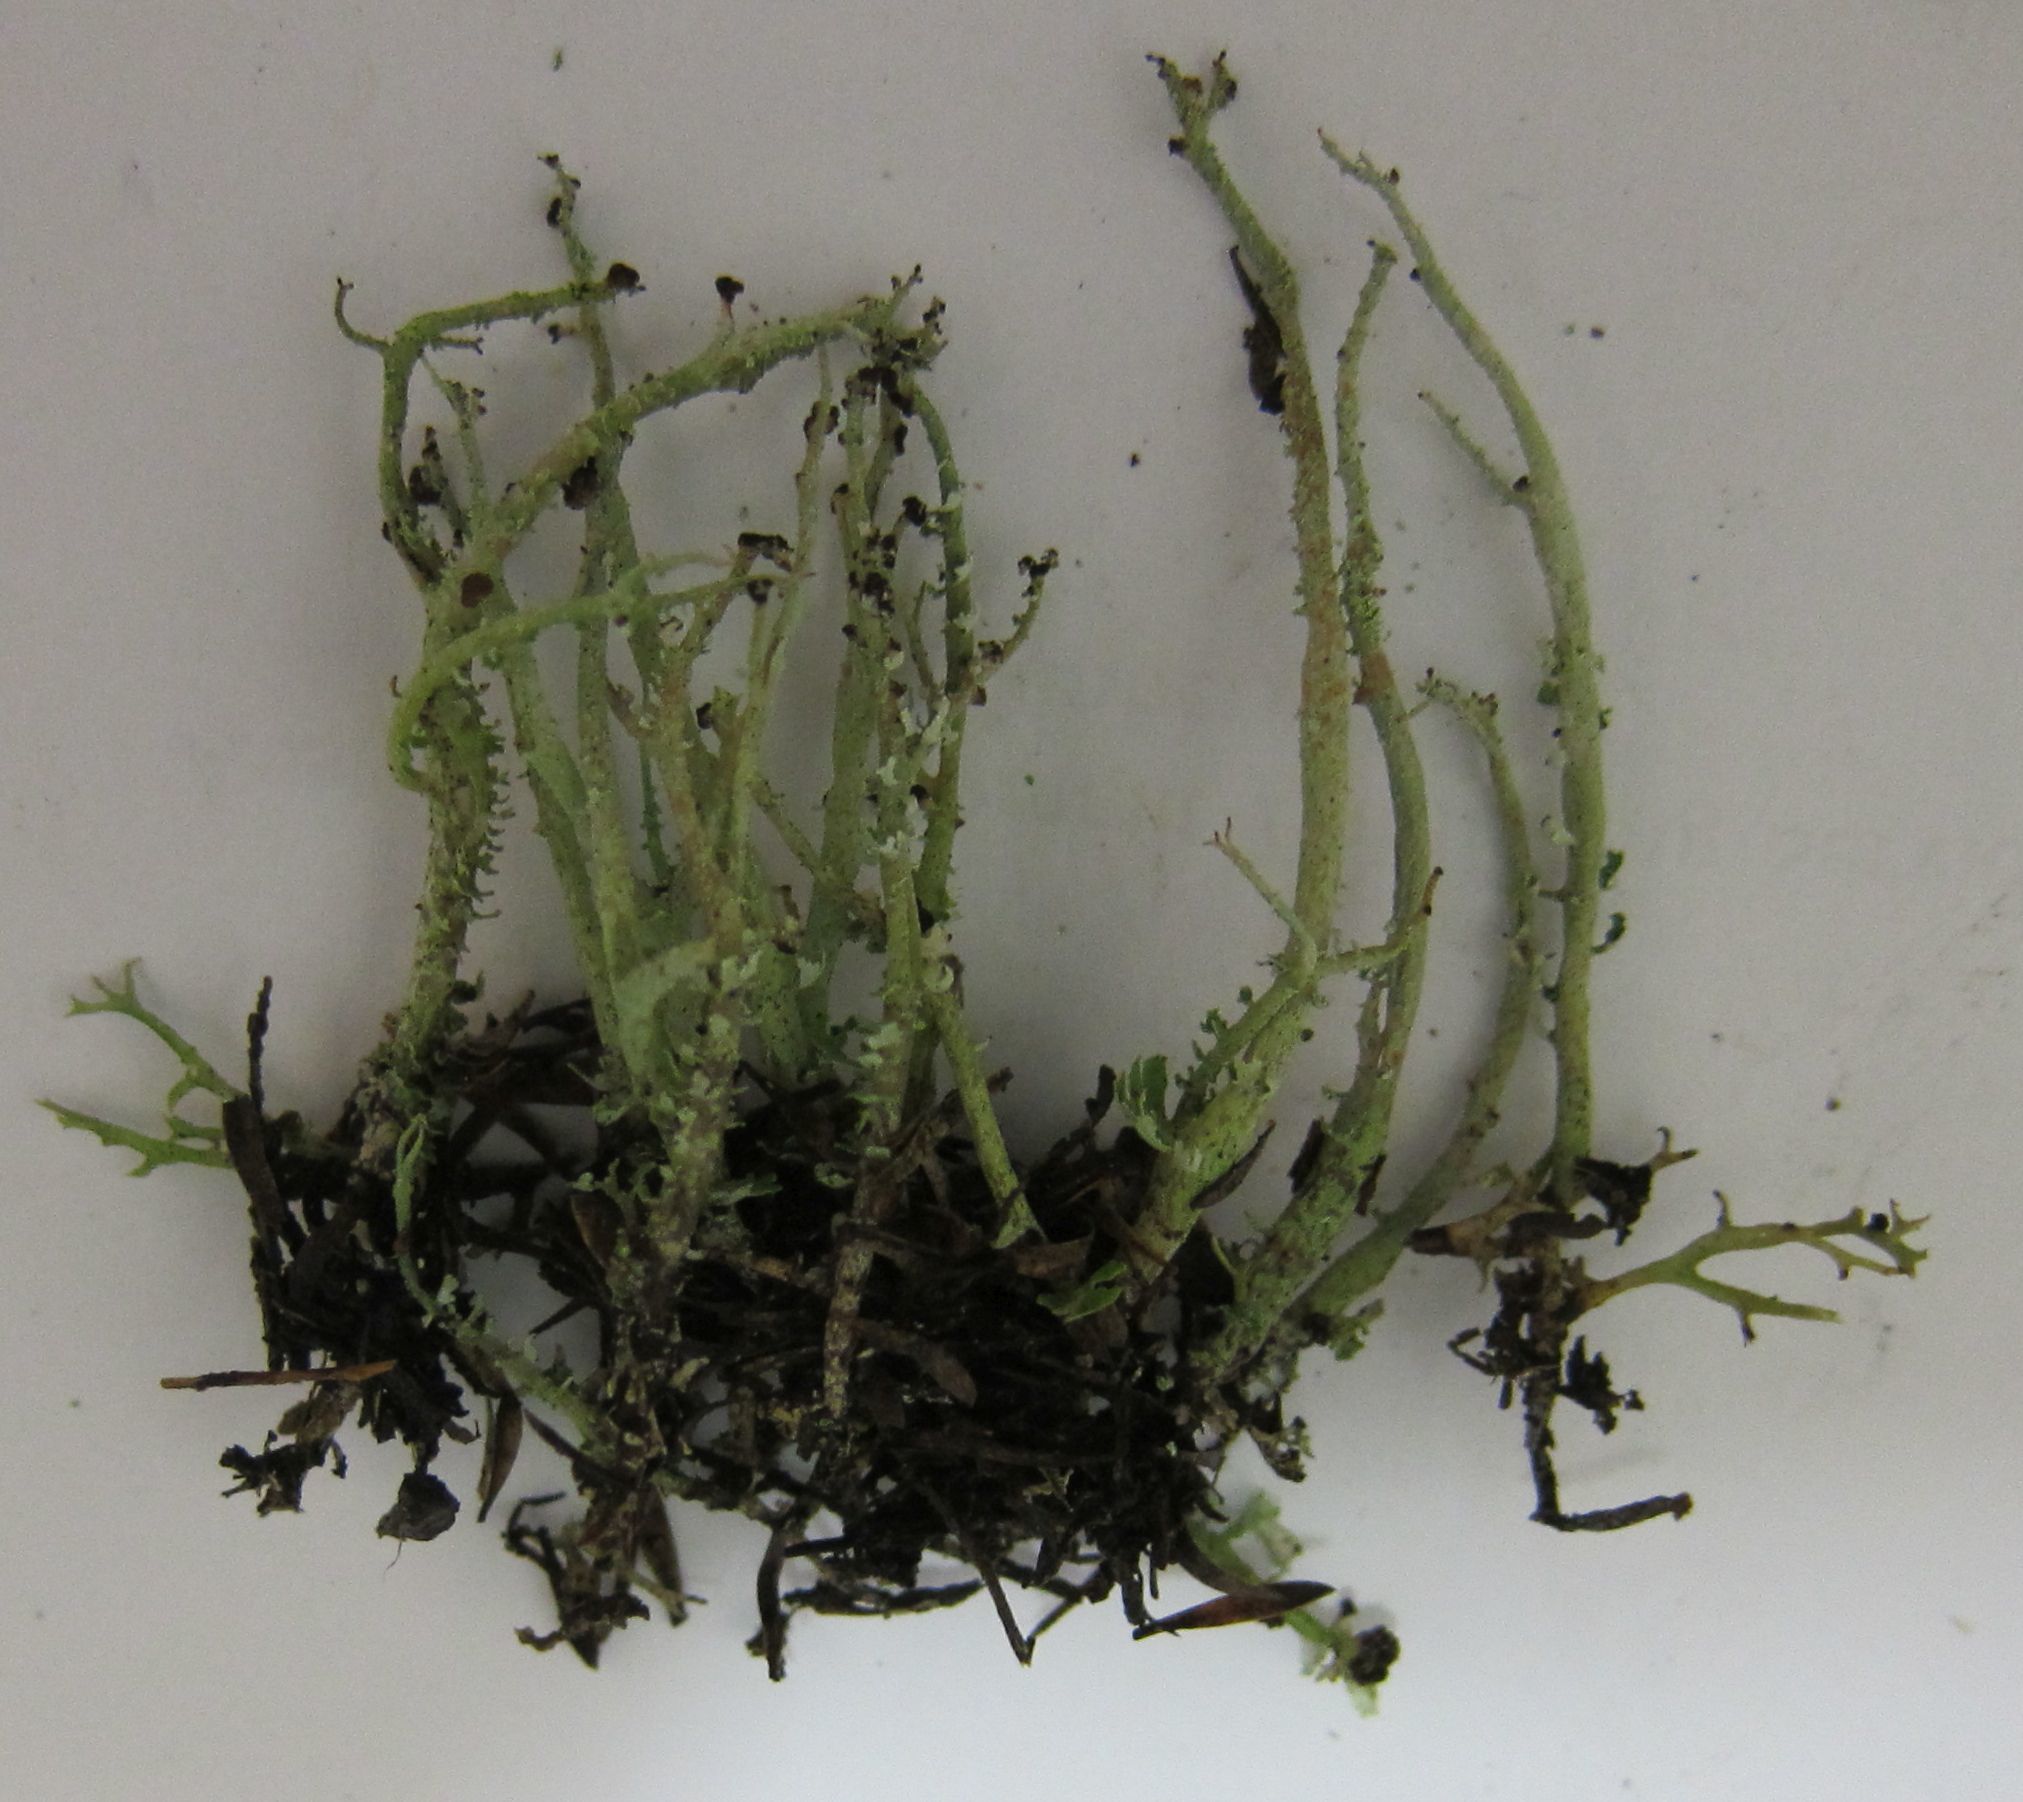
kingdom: Fungi
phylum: Ascomycota
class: Lecanoromycetes
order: Lecanorales
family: Cladoniaceae
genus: Cladonia
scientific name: Cladonia furcata
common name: Many-forked cladonia
